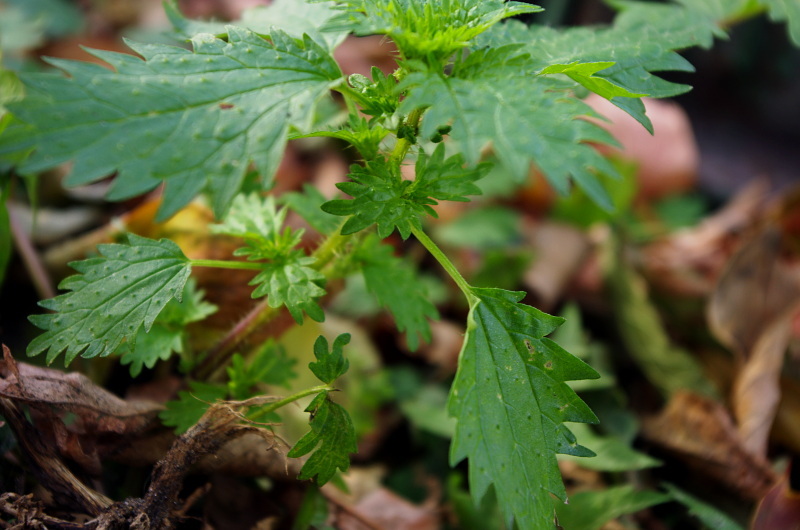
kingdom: Plantae
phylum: Tracheophyta
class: Magnoliopsida
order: Rosales
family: Urticaceae
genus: Urtica
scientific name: Urtica urens
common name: Dwarf nettle
